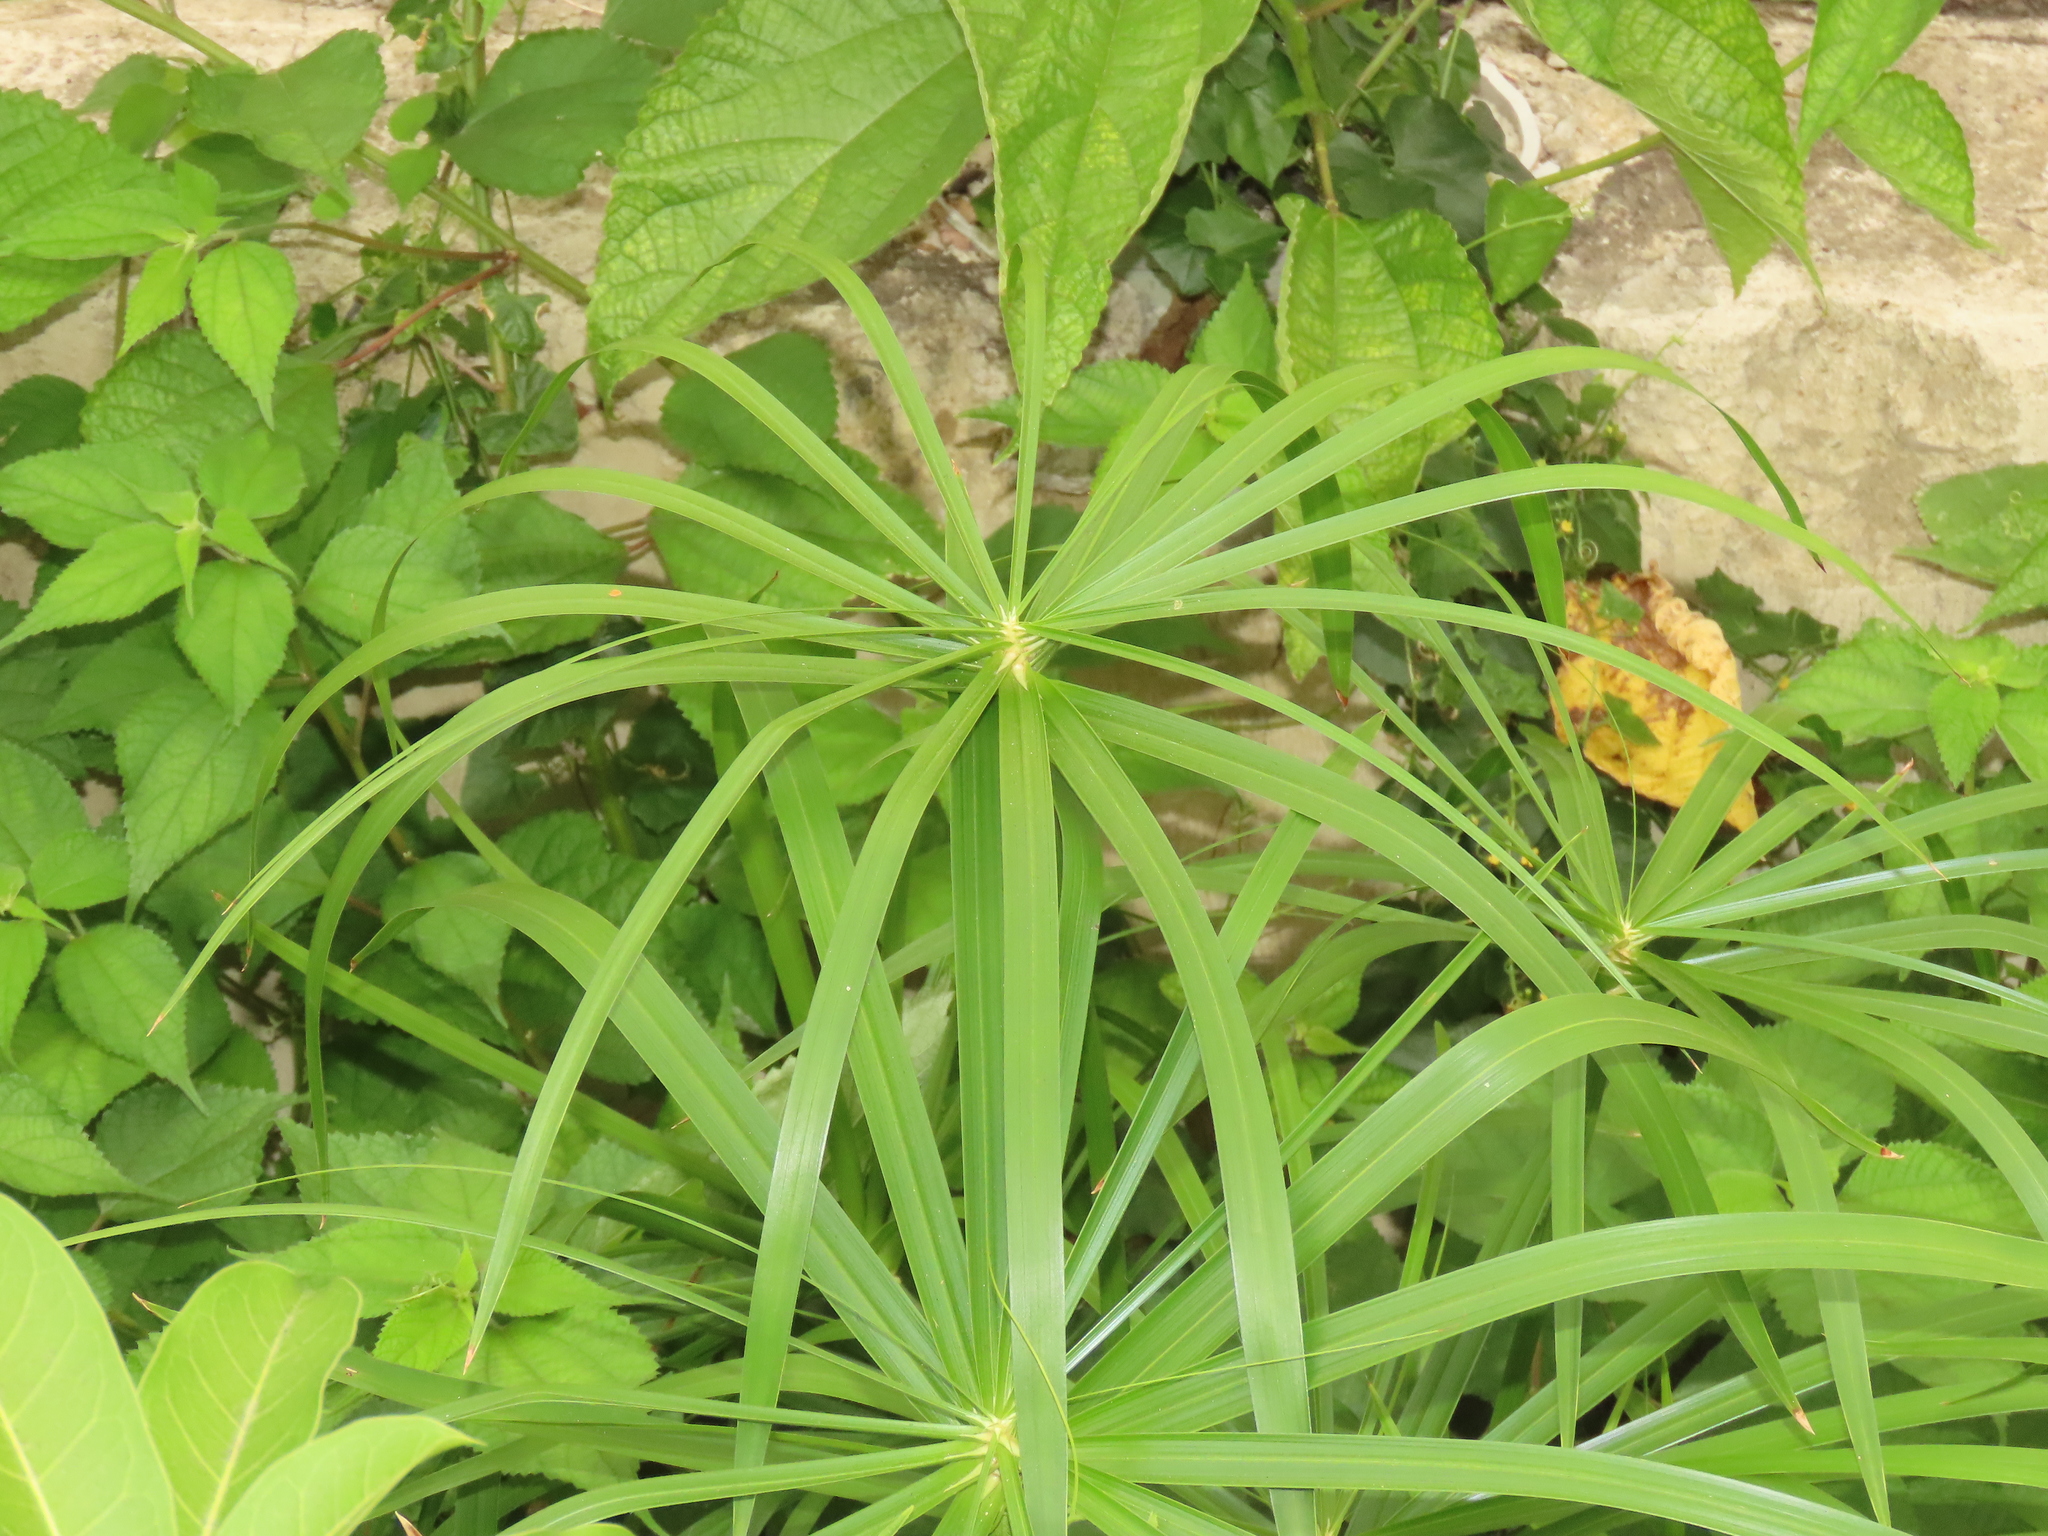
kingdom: Plantae
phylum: Tracheophyta
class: Liliopsida
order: Poales
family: Cyperaceae
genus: Cyperus
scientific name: Cyperus alternifolius
